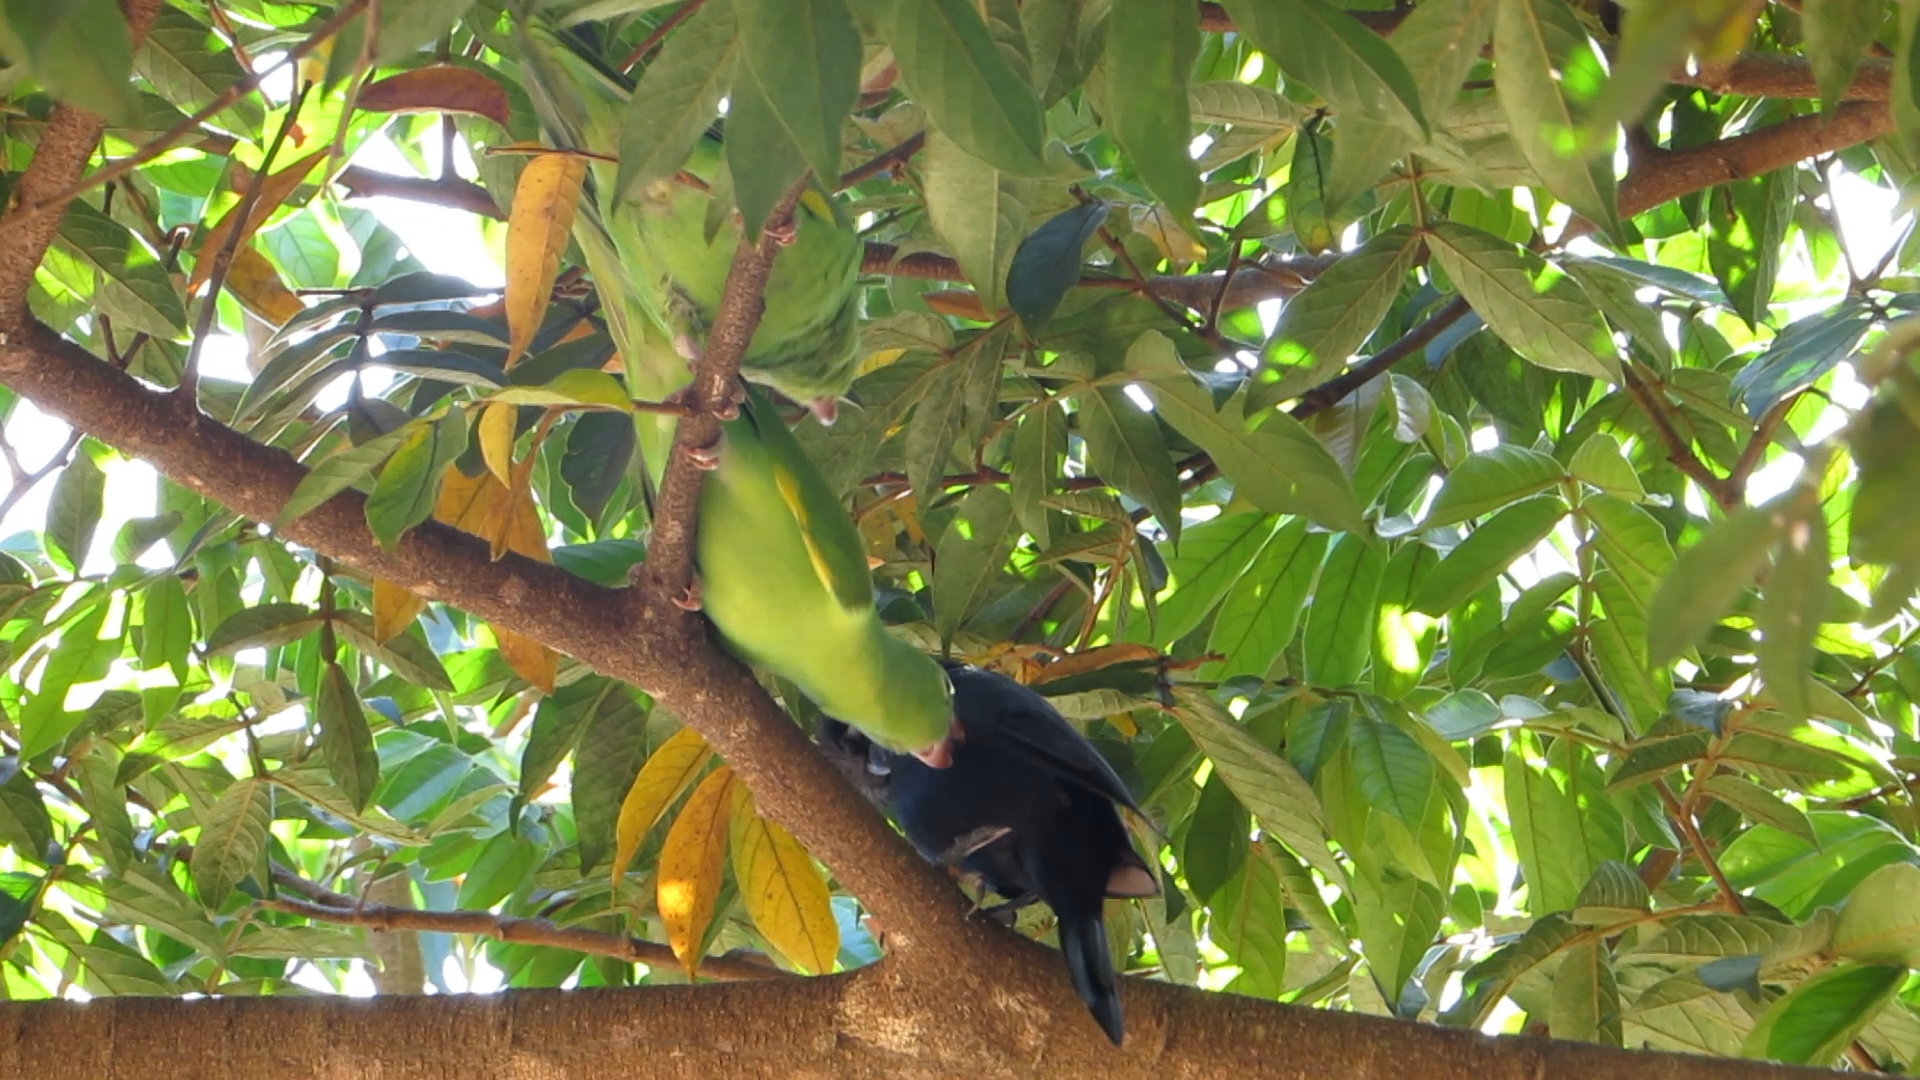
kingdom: Animalia
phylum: Chordata
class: Aves
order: Passeriformes
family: Icteridae
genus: Molothrus
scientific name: Molothrus bonariensis
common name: Shiny cowbird
